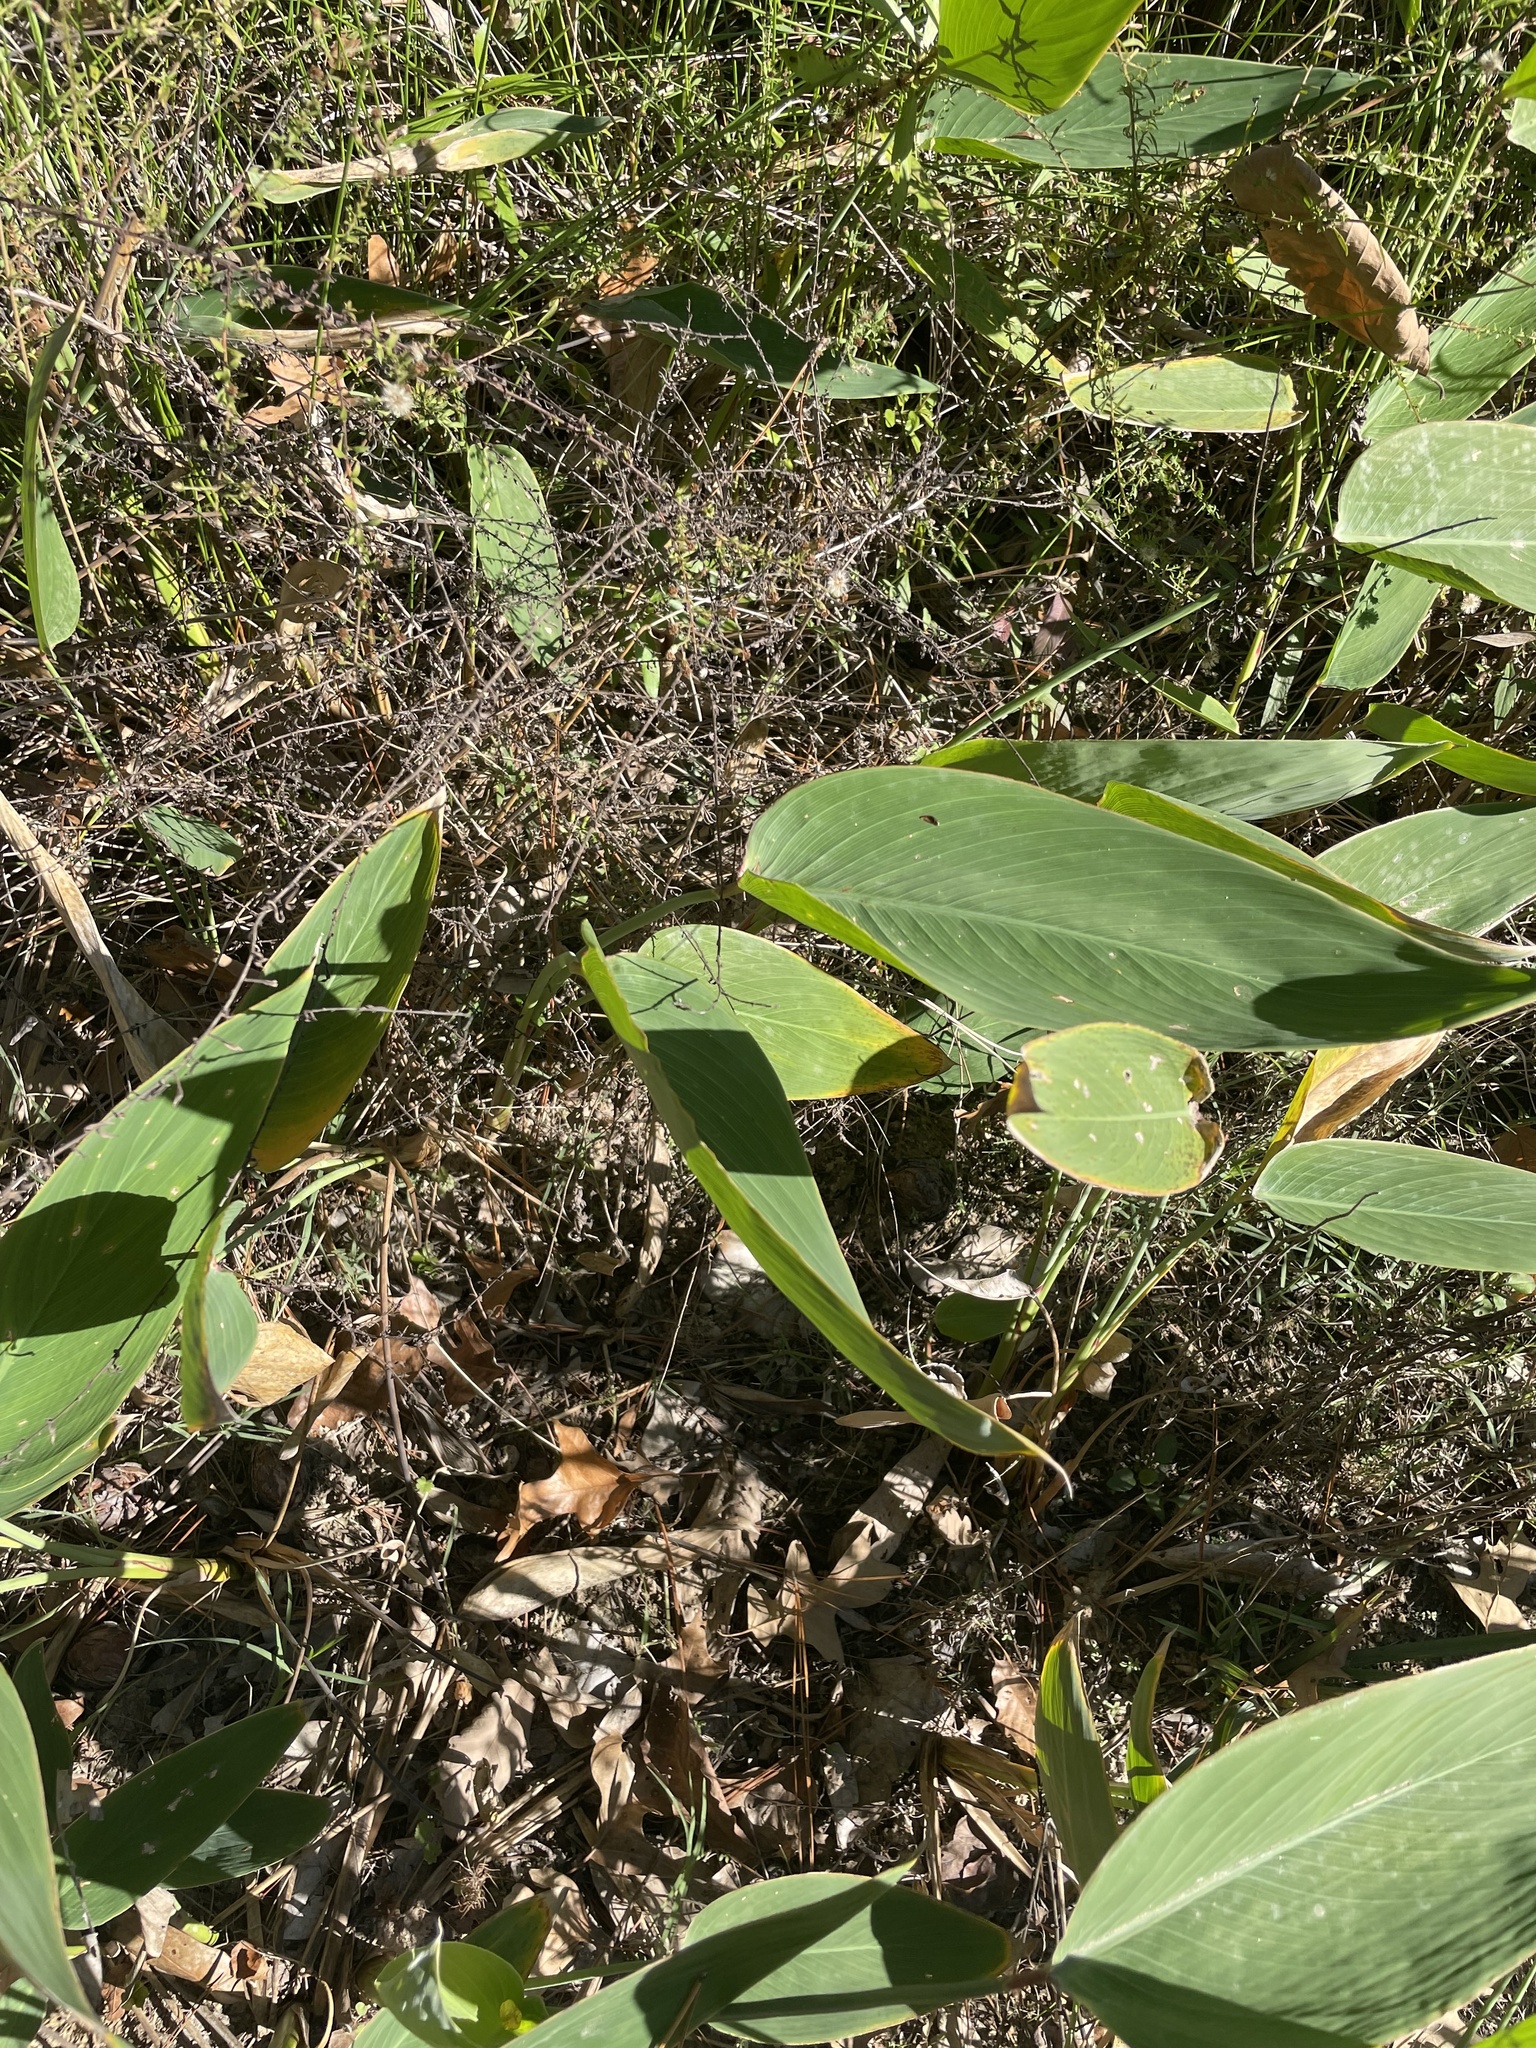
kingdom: Plantae
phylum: Tracheophyta
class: Liliopsida
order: Zingiberales
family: Marantaceae
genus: Thalia
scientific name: Thalia dealbata
